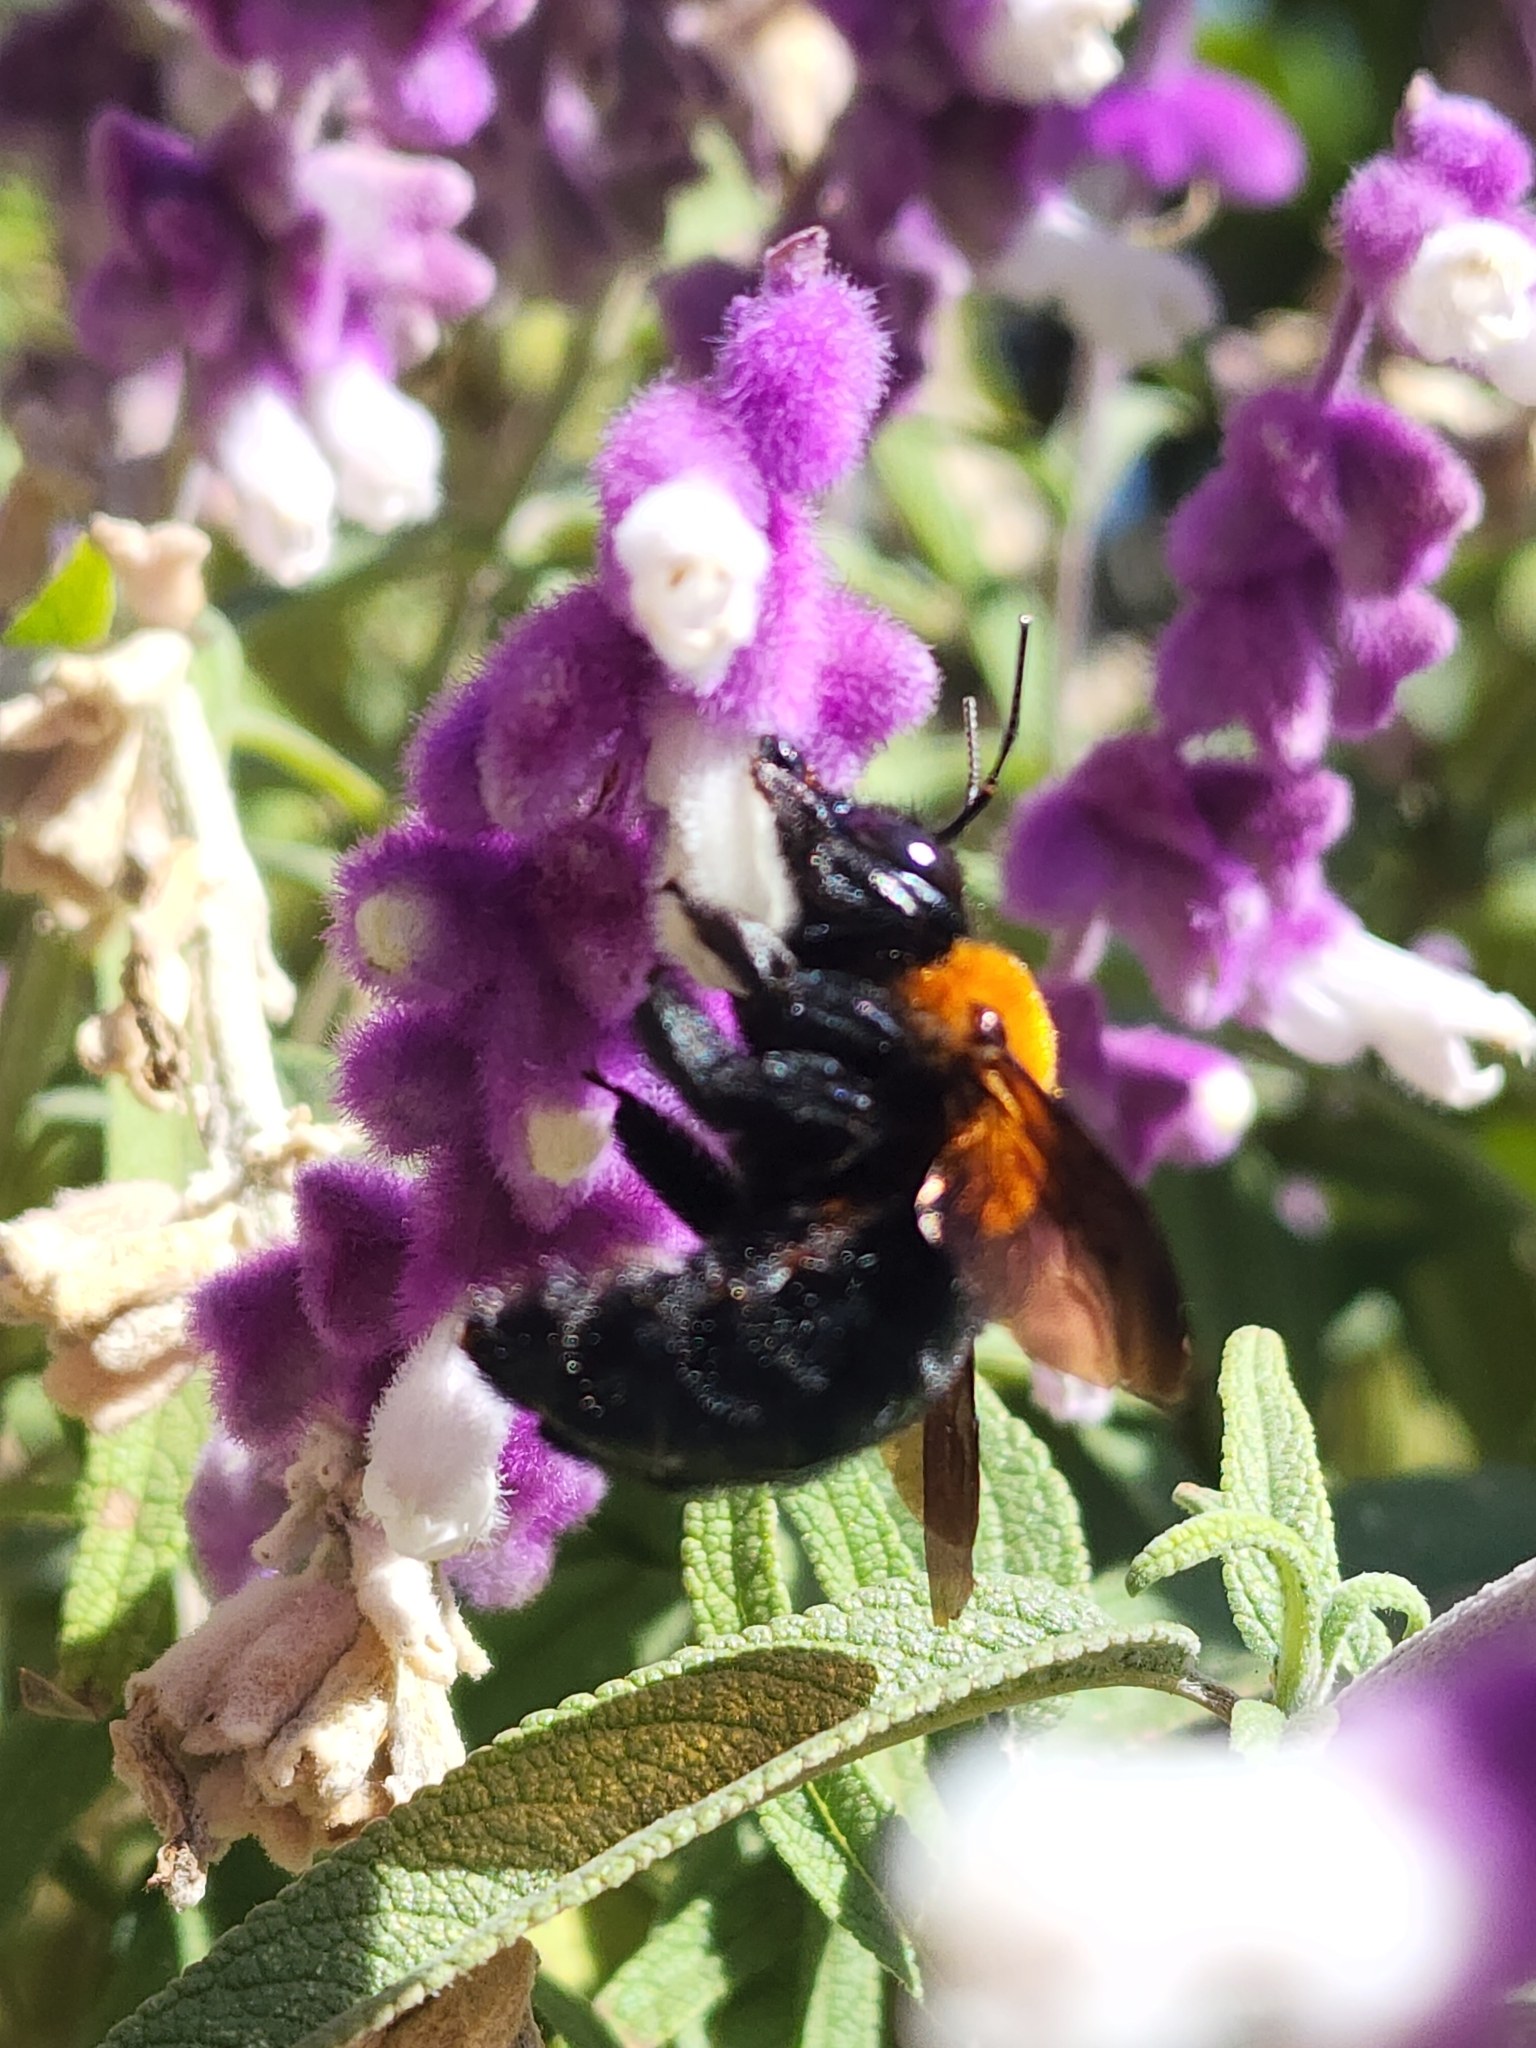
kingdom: Animalia
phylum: Arthropoda
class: Insecta
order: Hymenoptera
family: Apidae
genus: Xylocopa
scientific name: Xylocopa eximia
